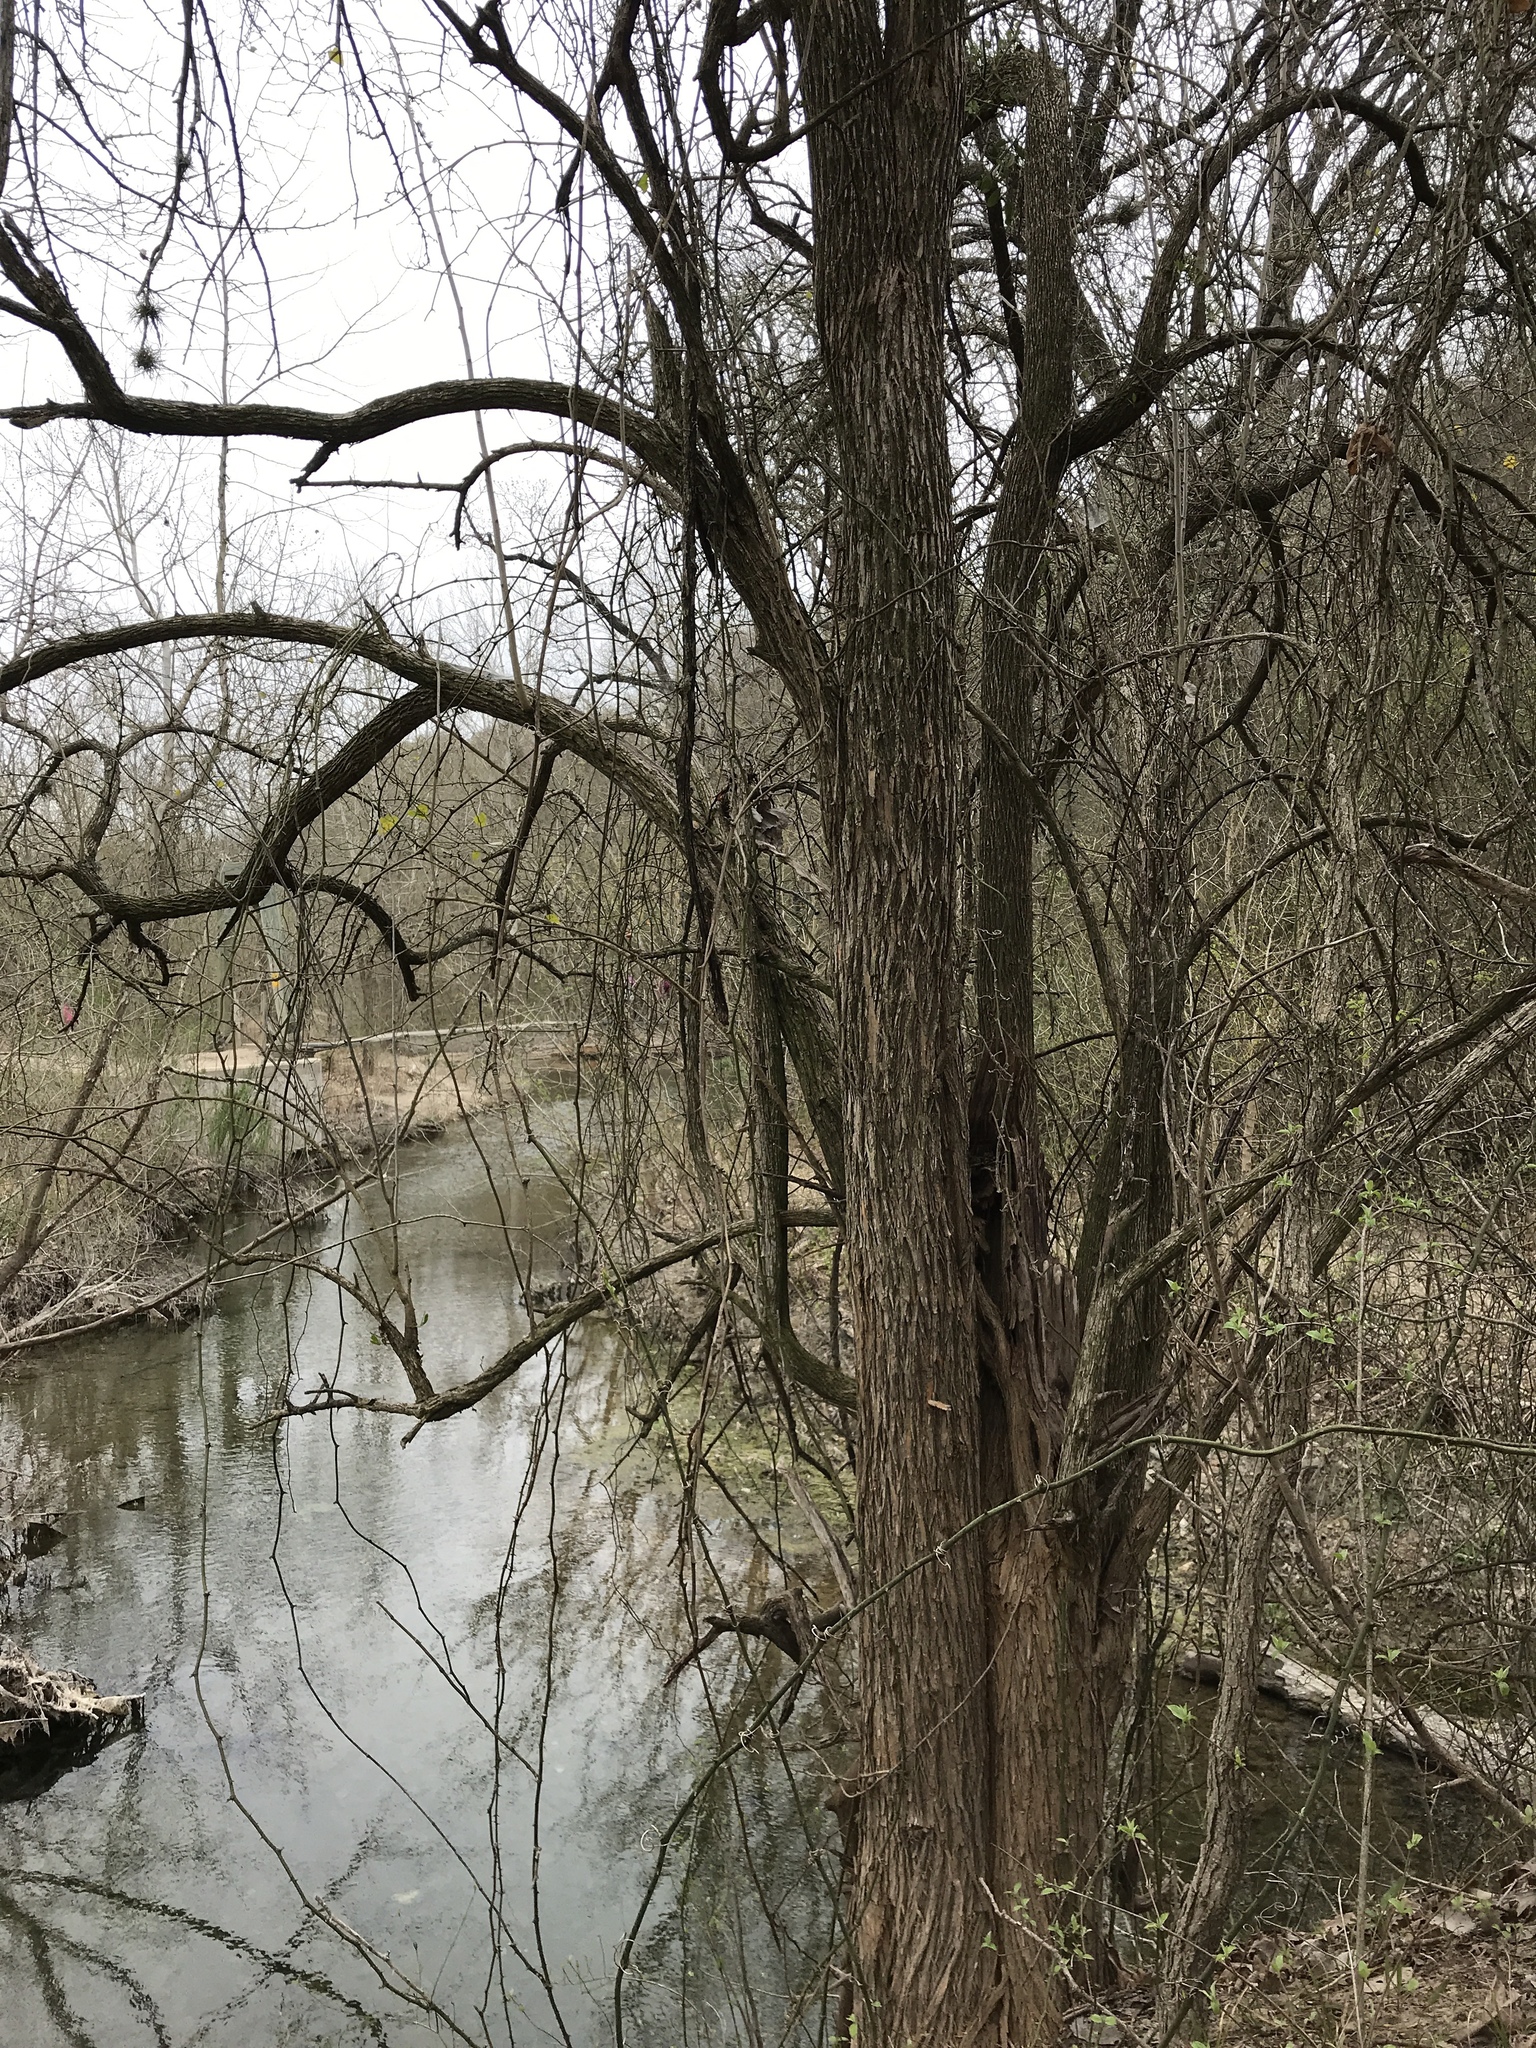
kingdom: Plantae
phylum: Tracheophyta
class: Magnoliopsida
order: Rosales
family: Moraceae
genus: Maclura
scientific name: Maclura pomifera
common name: Osage-orange
